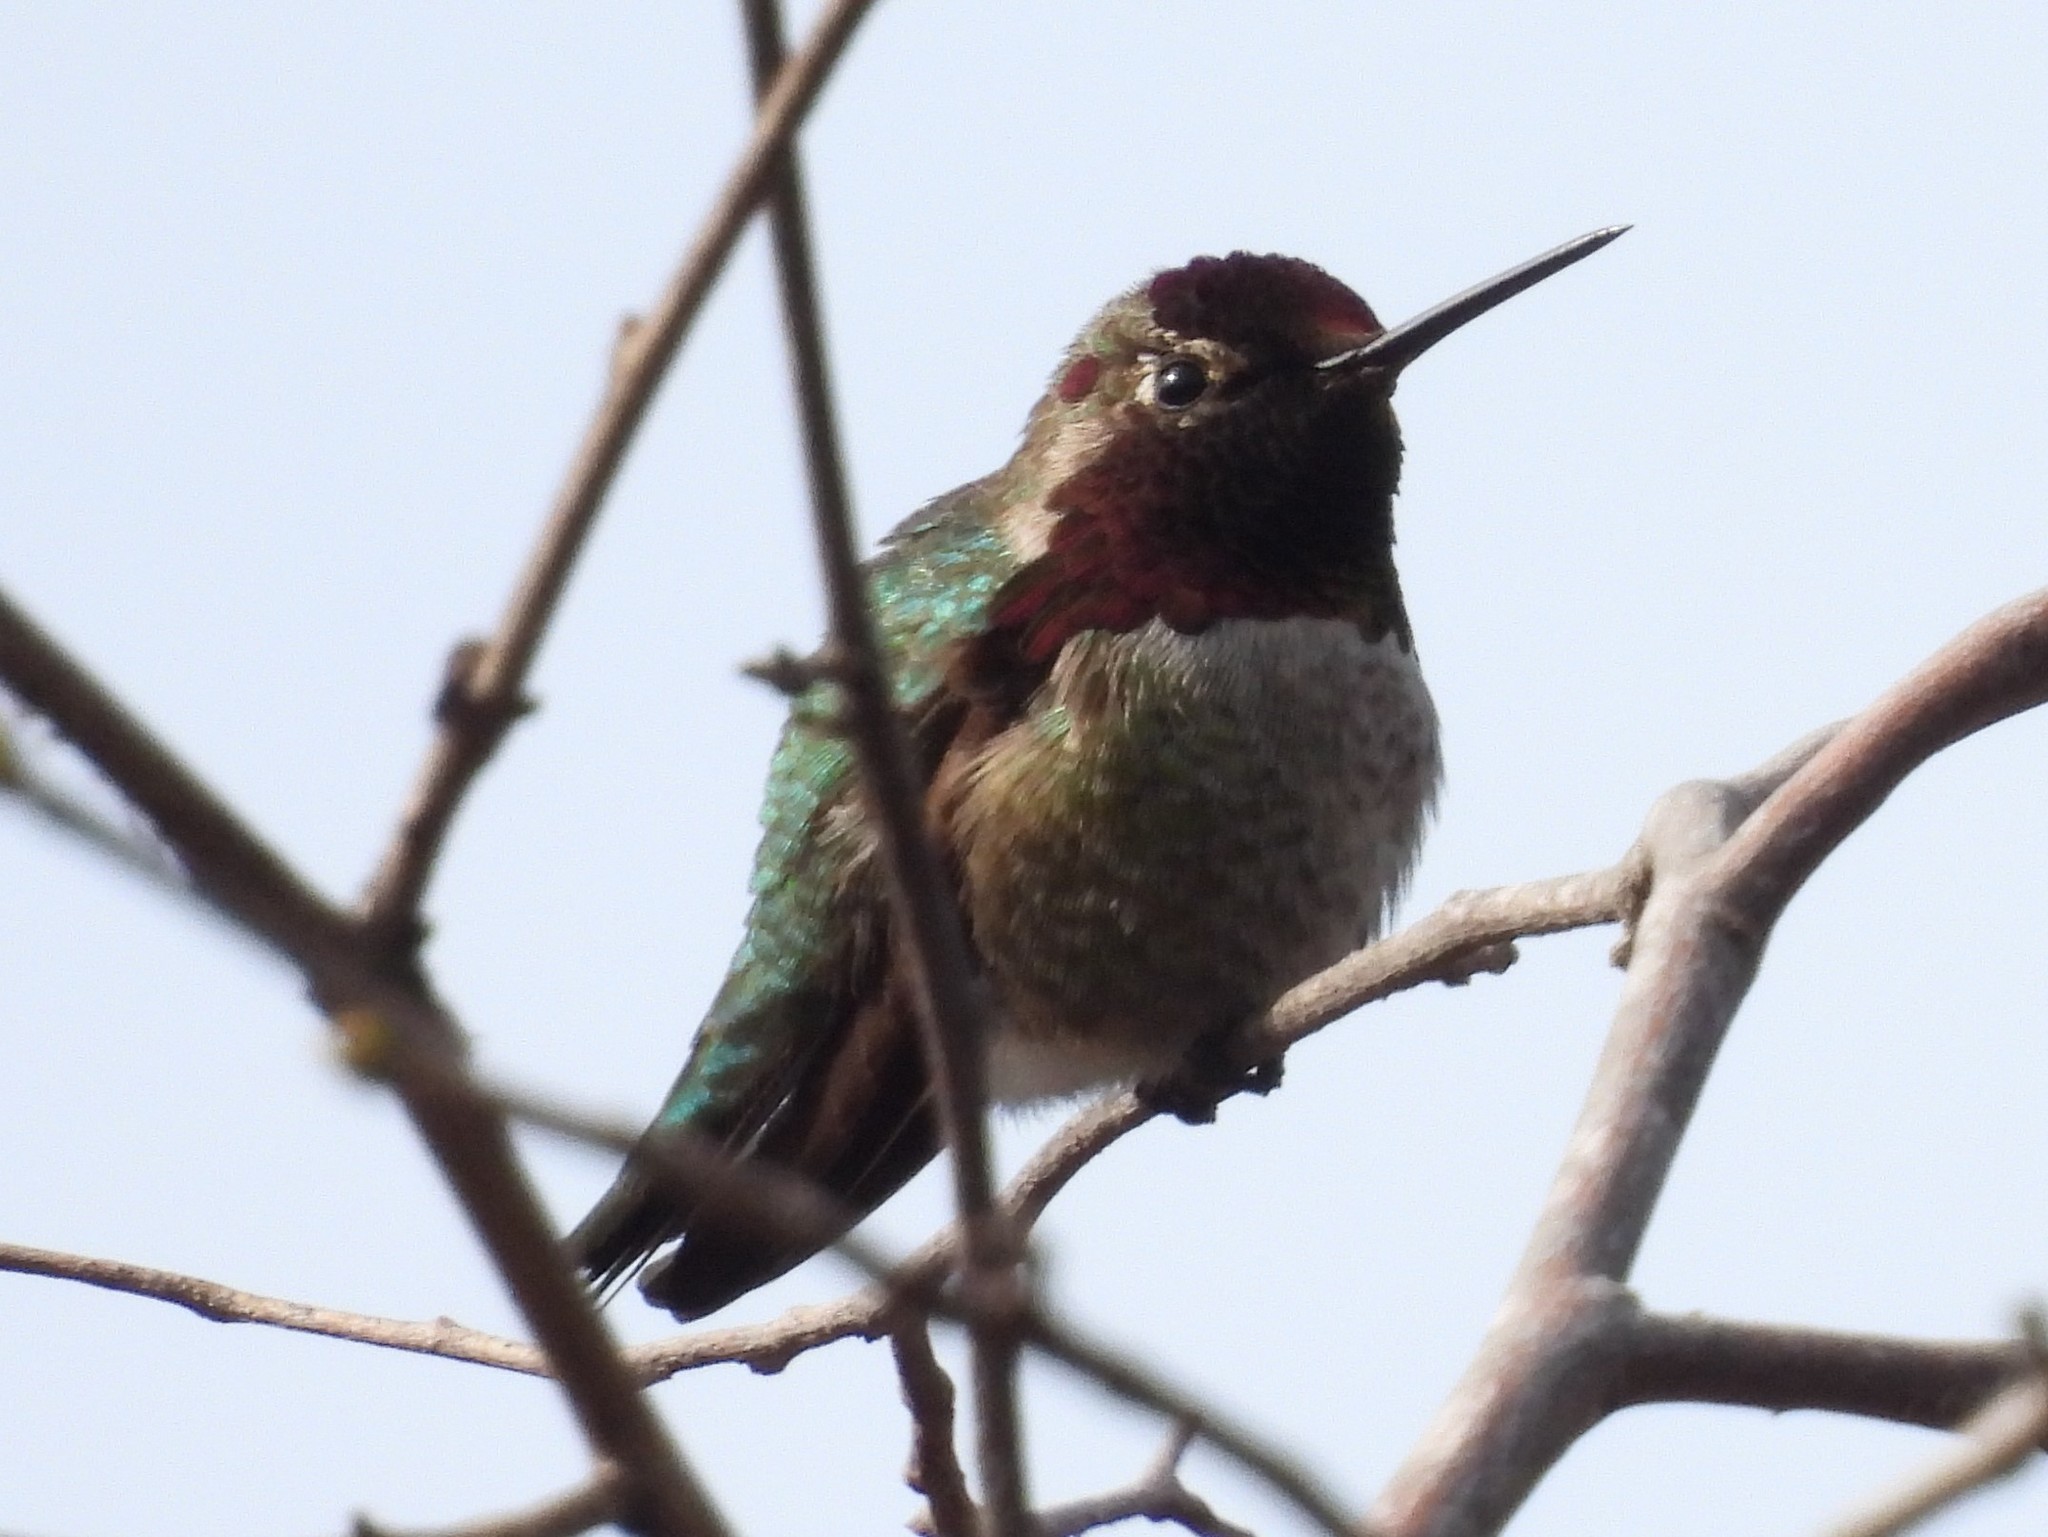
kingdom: Animalia
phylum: Chordata
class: Aves
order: Apodiformes
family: Trochilidae
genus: Calypte
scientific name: Calypte anna
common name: Anna's hummingbird
